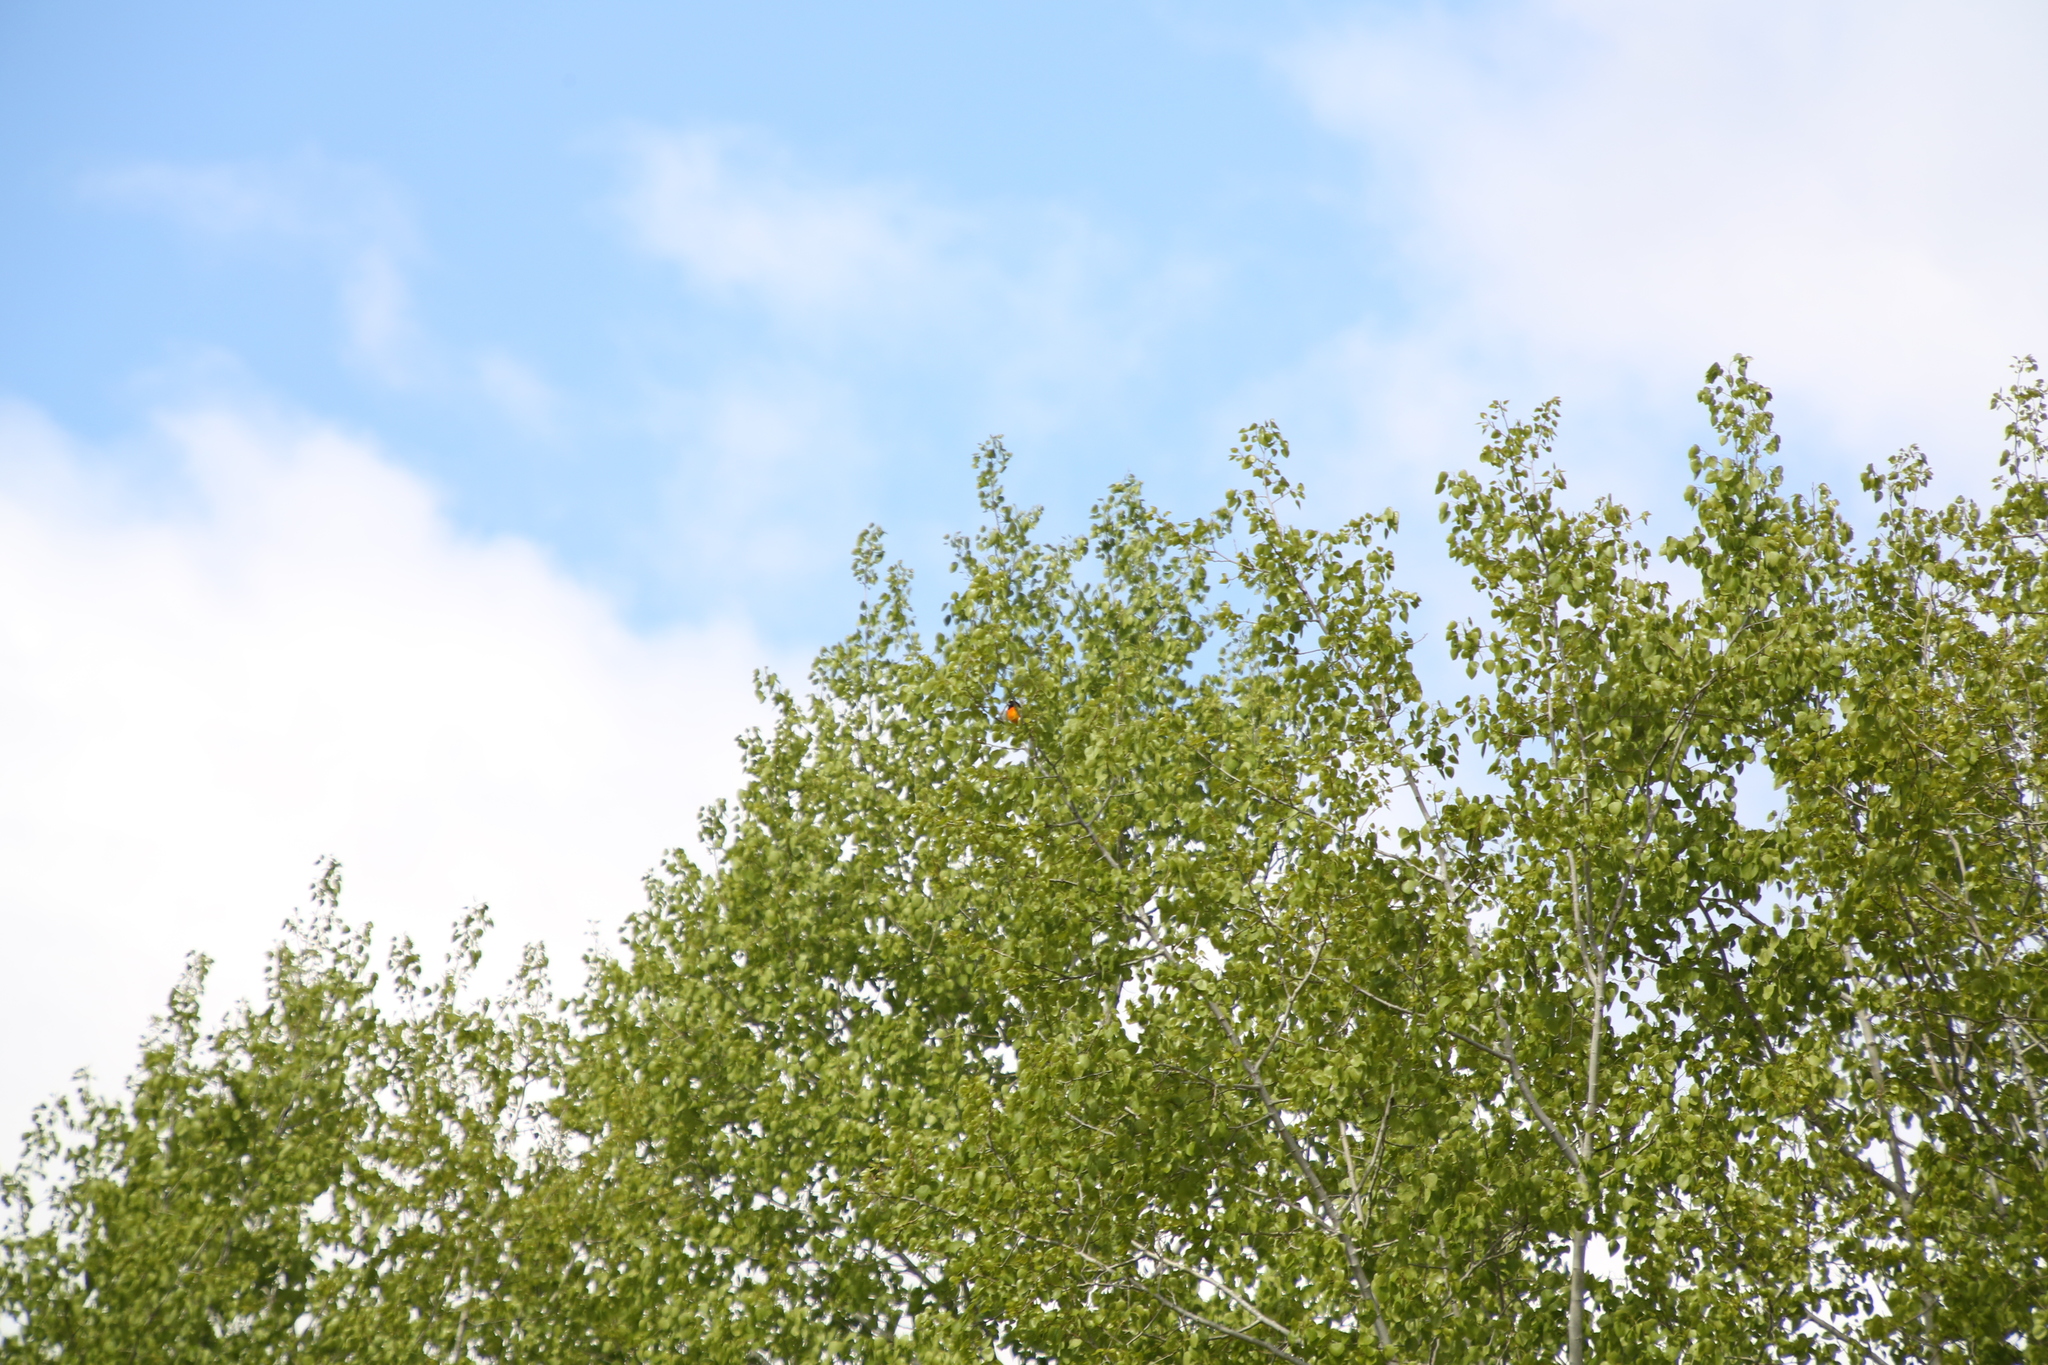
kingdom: Animalia
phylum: Chordata
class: Aves
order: Passeriformes
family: Icteridae
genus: Icterus
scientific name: Icterus galbula
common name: Baltimore oriole
